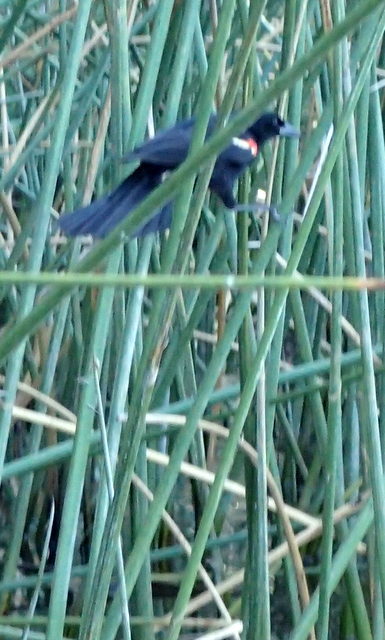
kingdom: Animalia
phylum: Chordata
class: Aves
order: Passeriformes
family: Icteridae
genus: Agelaius
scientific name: Agelaius phoeniceus
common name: Red-winged blackbird
